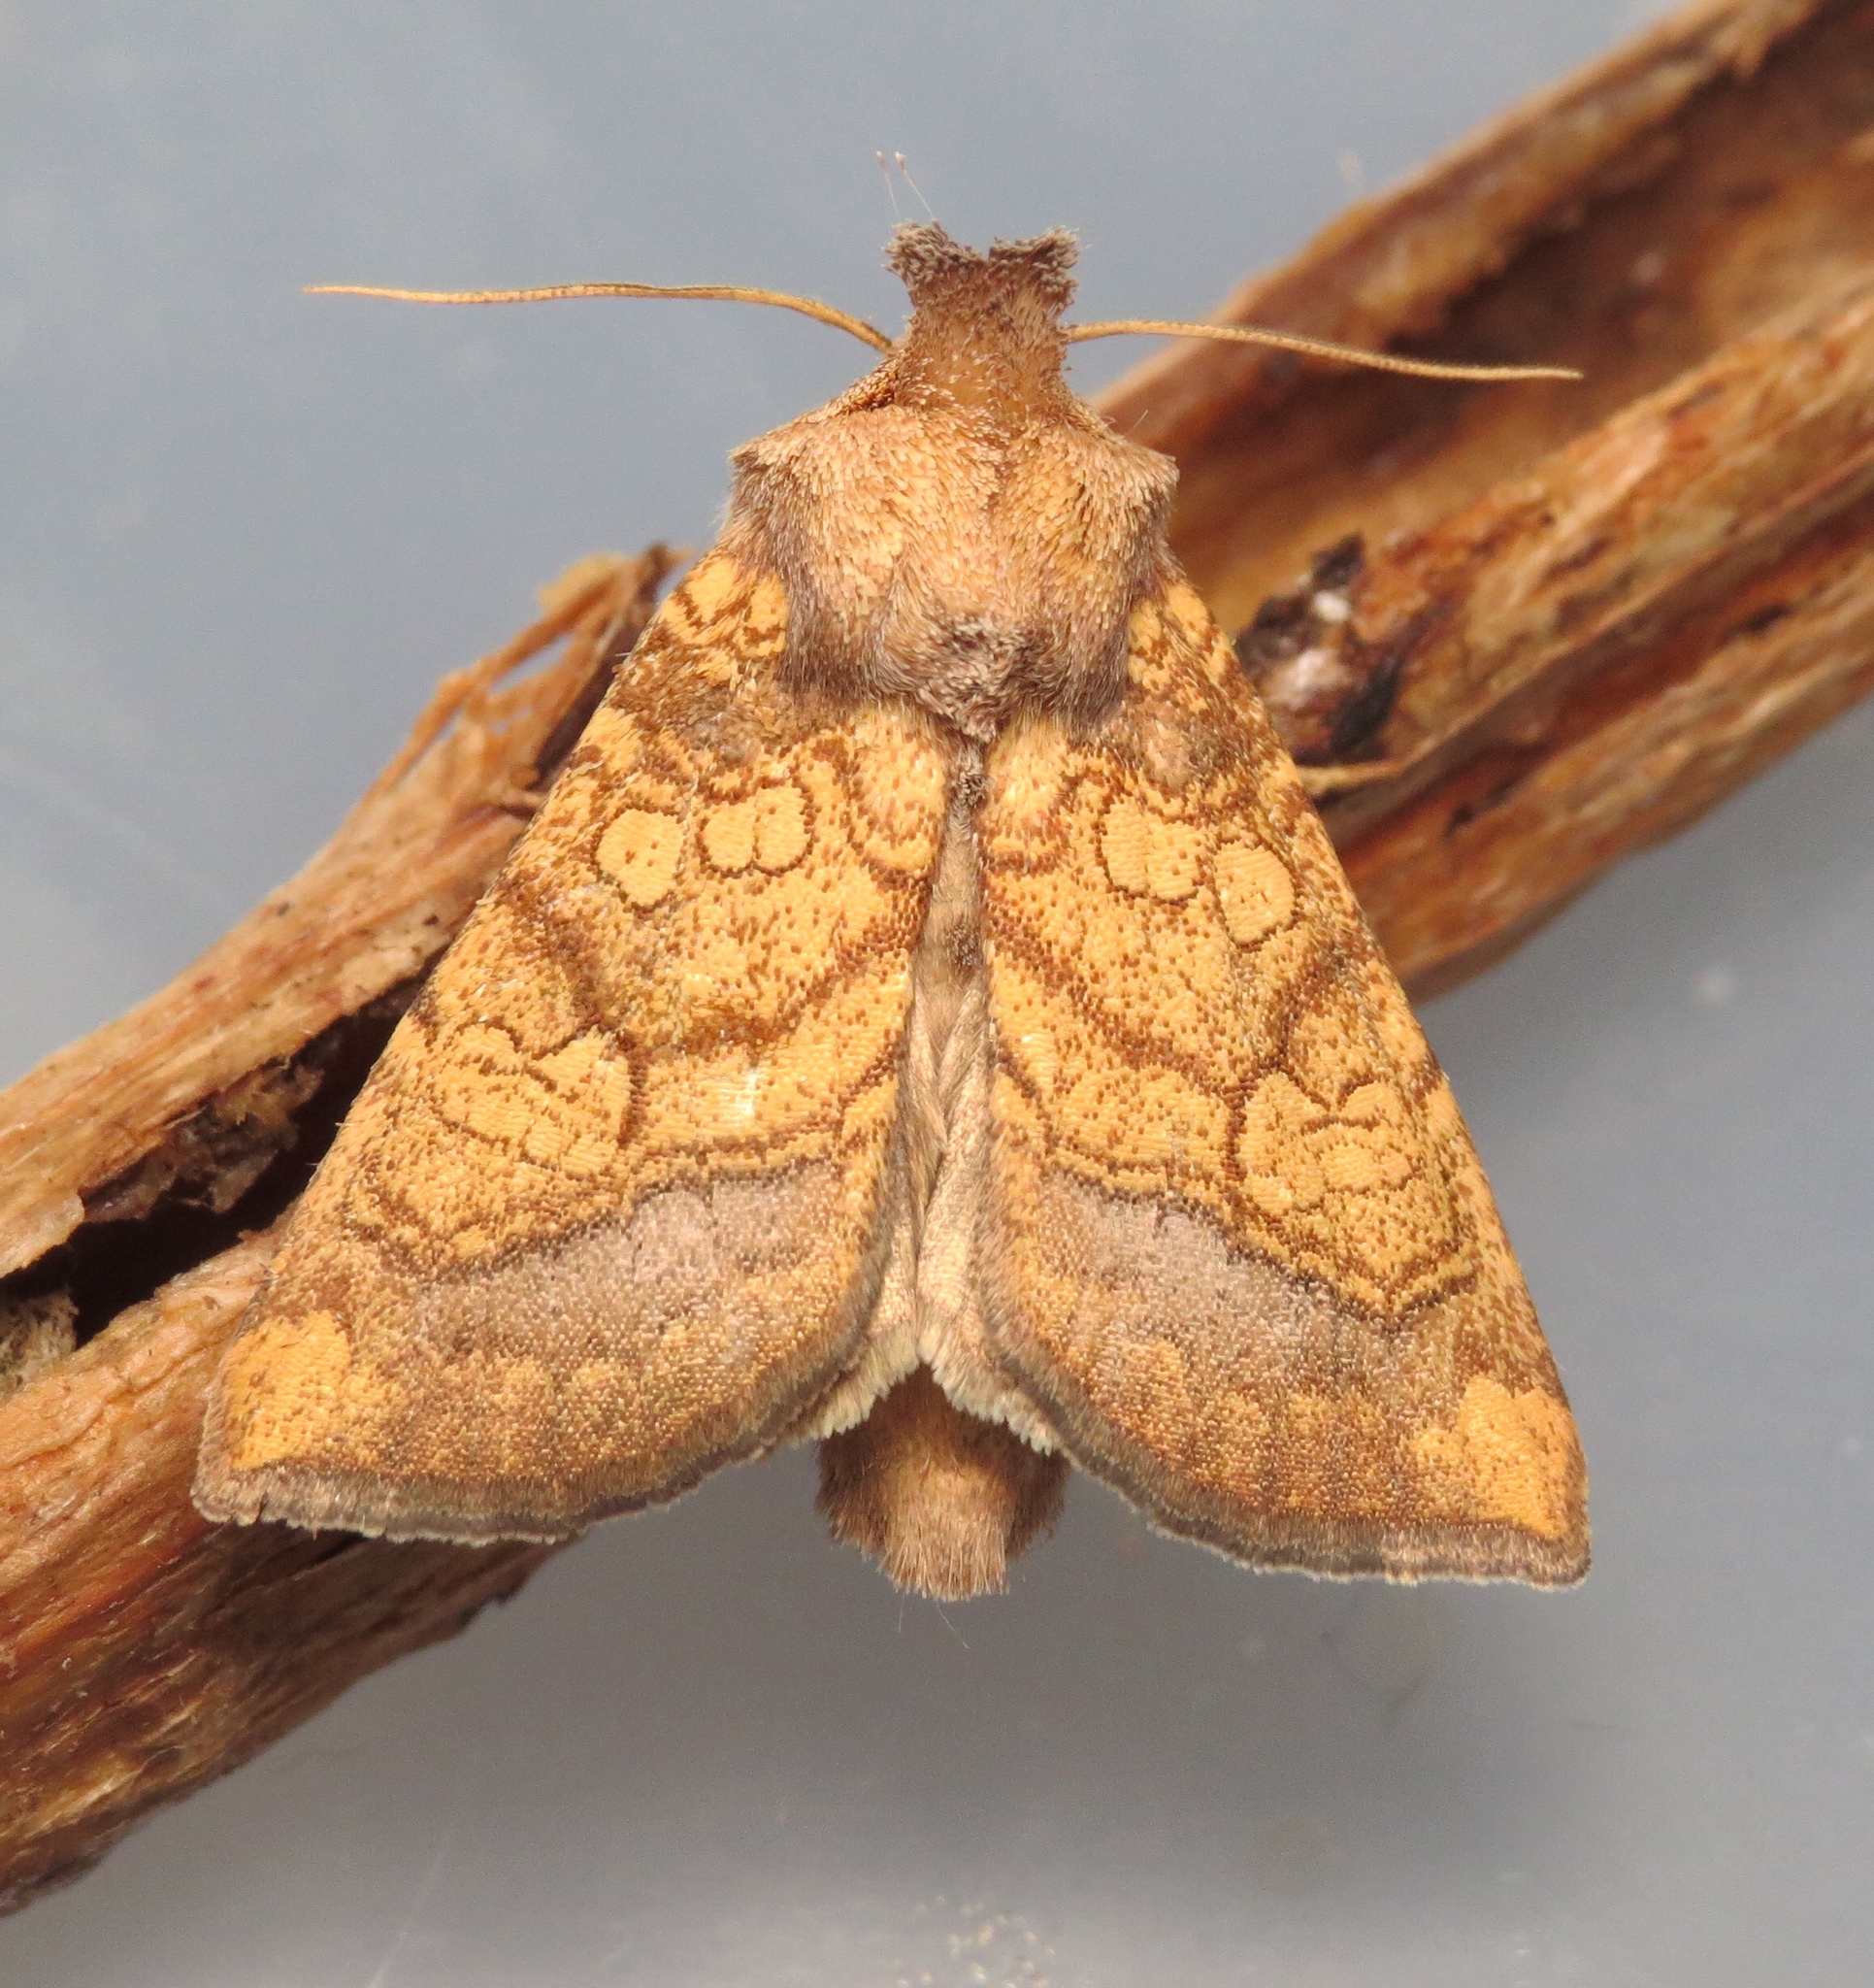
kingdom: Animalia
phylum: Arthropoda
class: Insecta
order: Lepidoptera
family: Noctuidae
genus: Papaipema
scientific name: Papaipema sulphurata
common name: Water-willow stem borer
